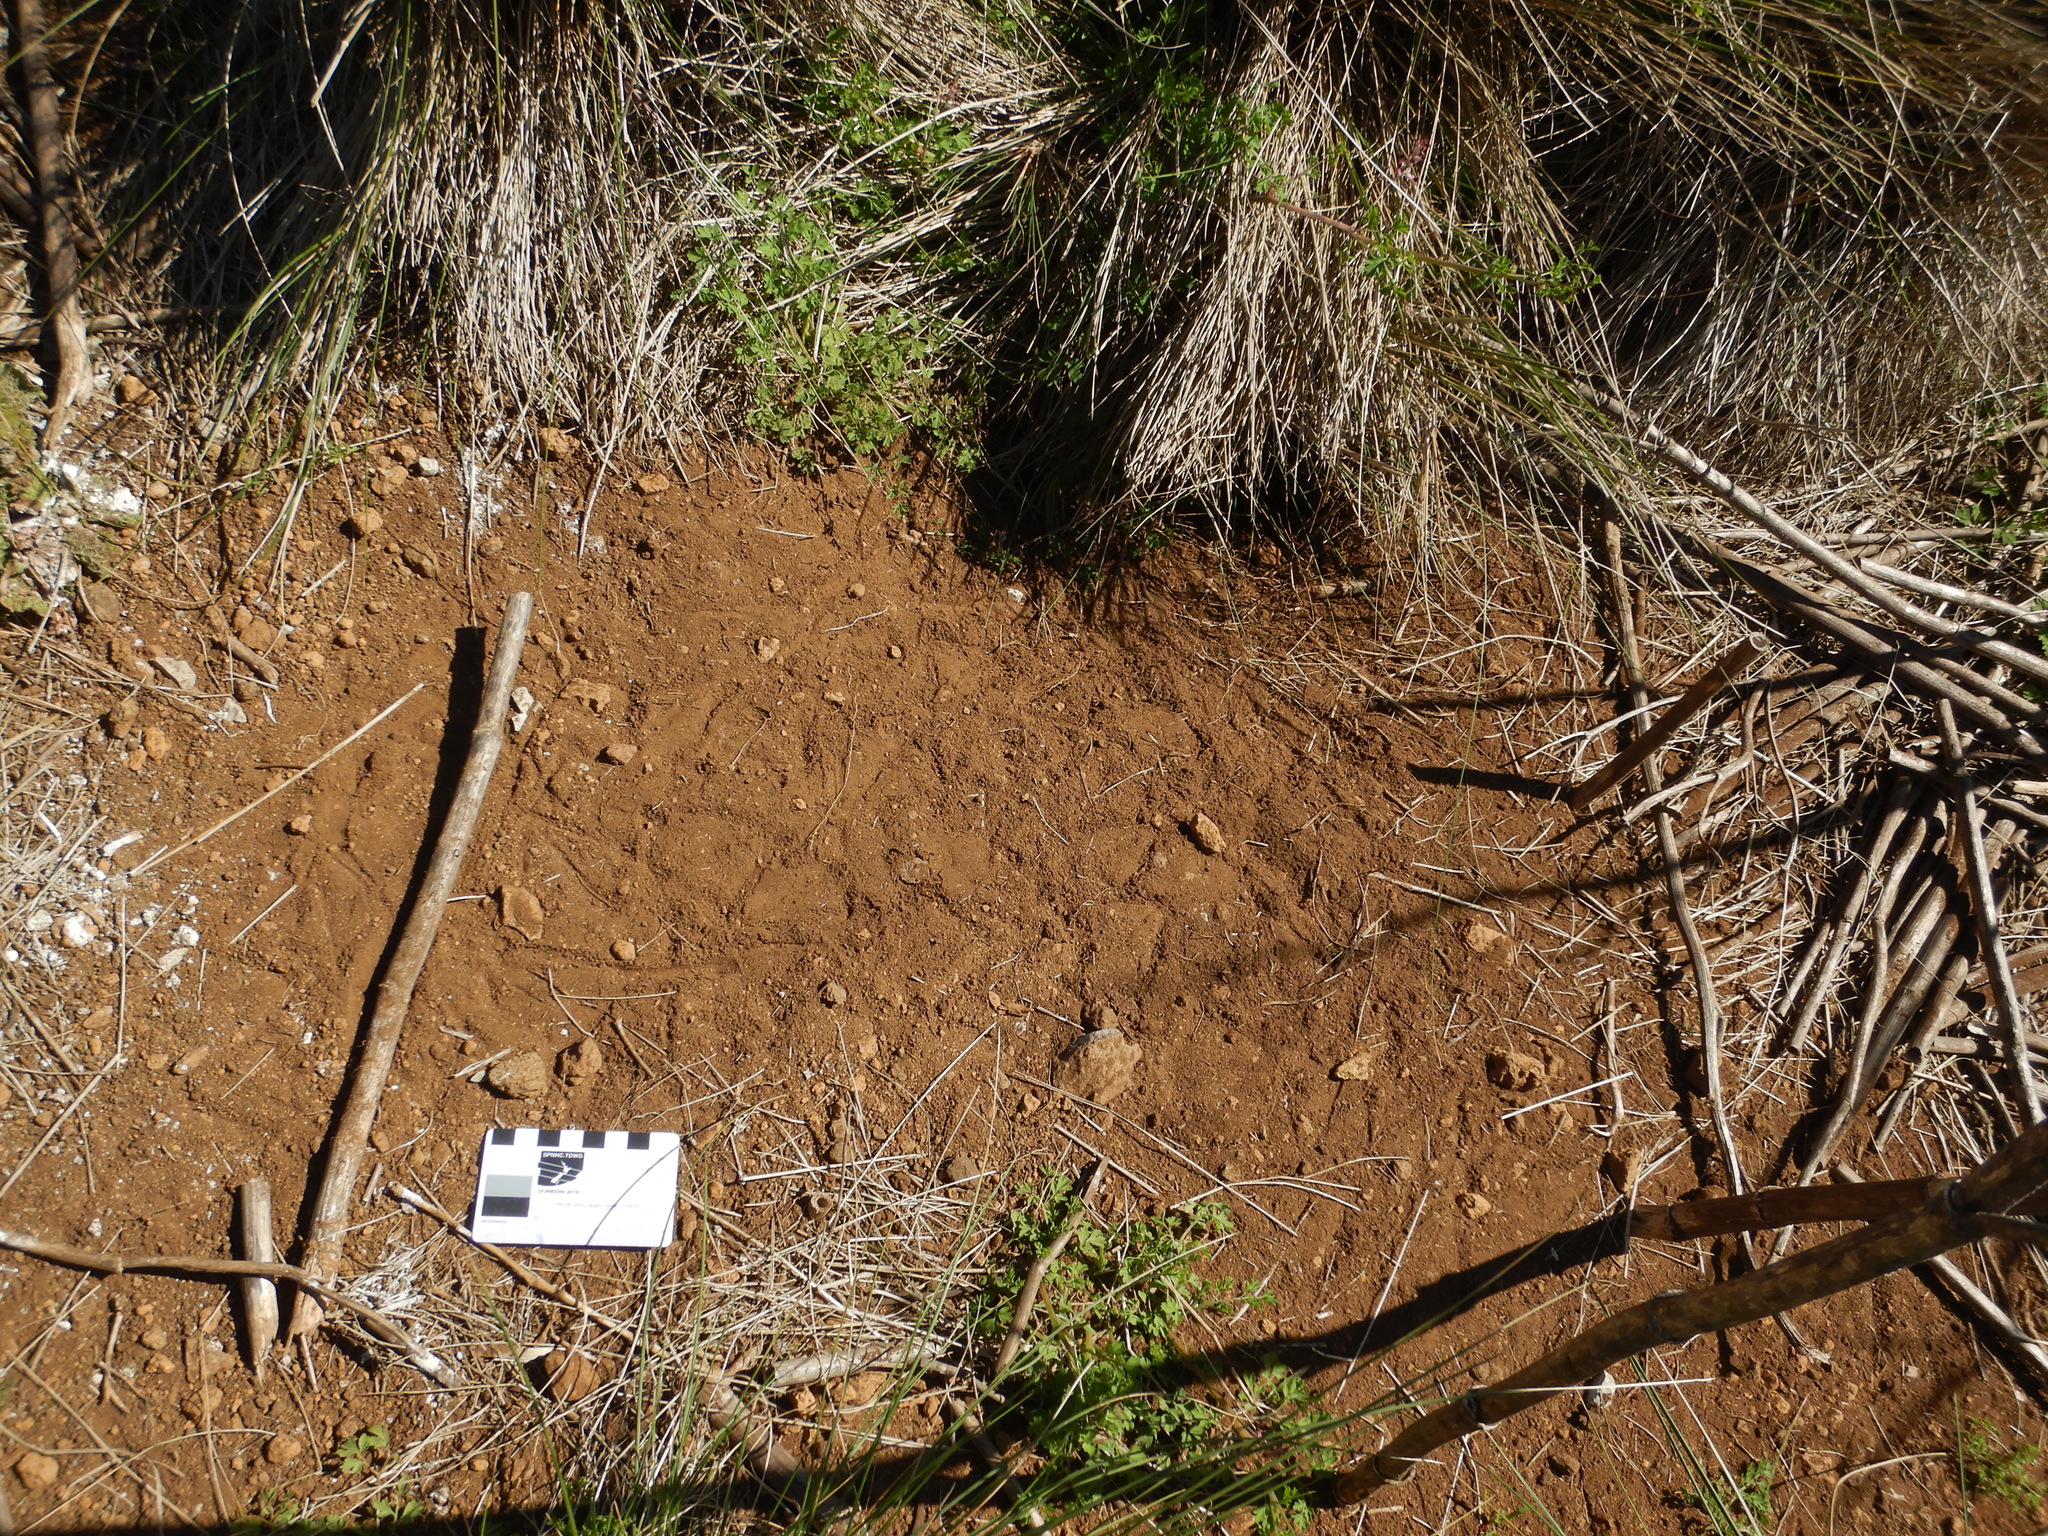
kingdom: Animalia
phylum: Chordata
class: Aves
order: Procellariiformes
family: Procellariidae
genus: Puffinus
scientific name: Puffinus tenuirostris
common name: Short-tailed shearwater
